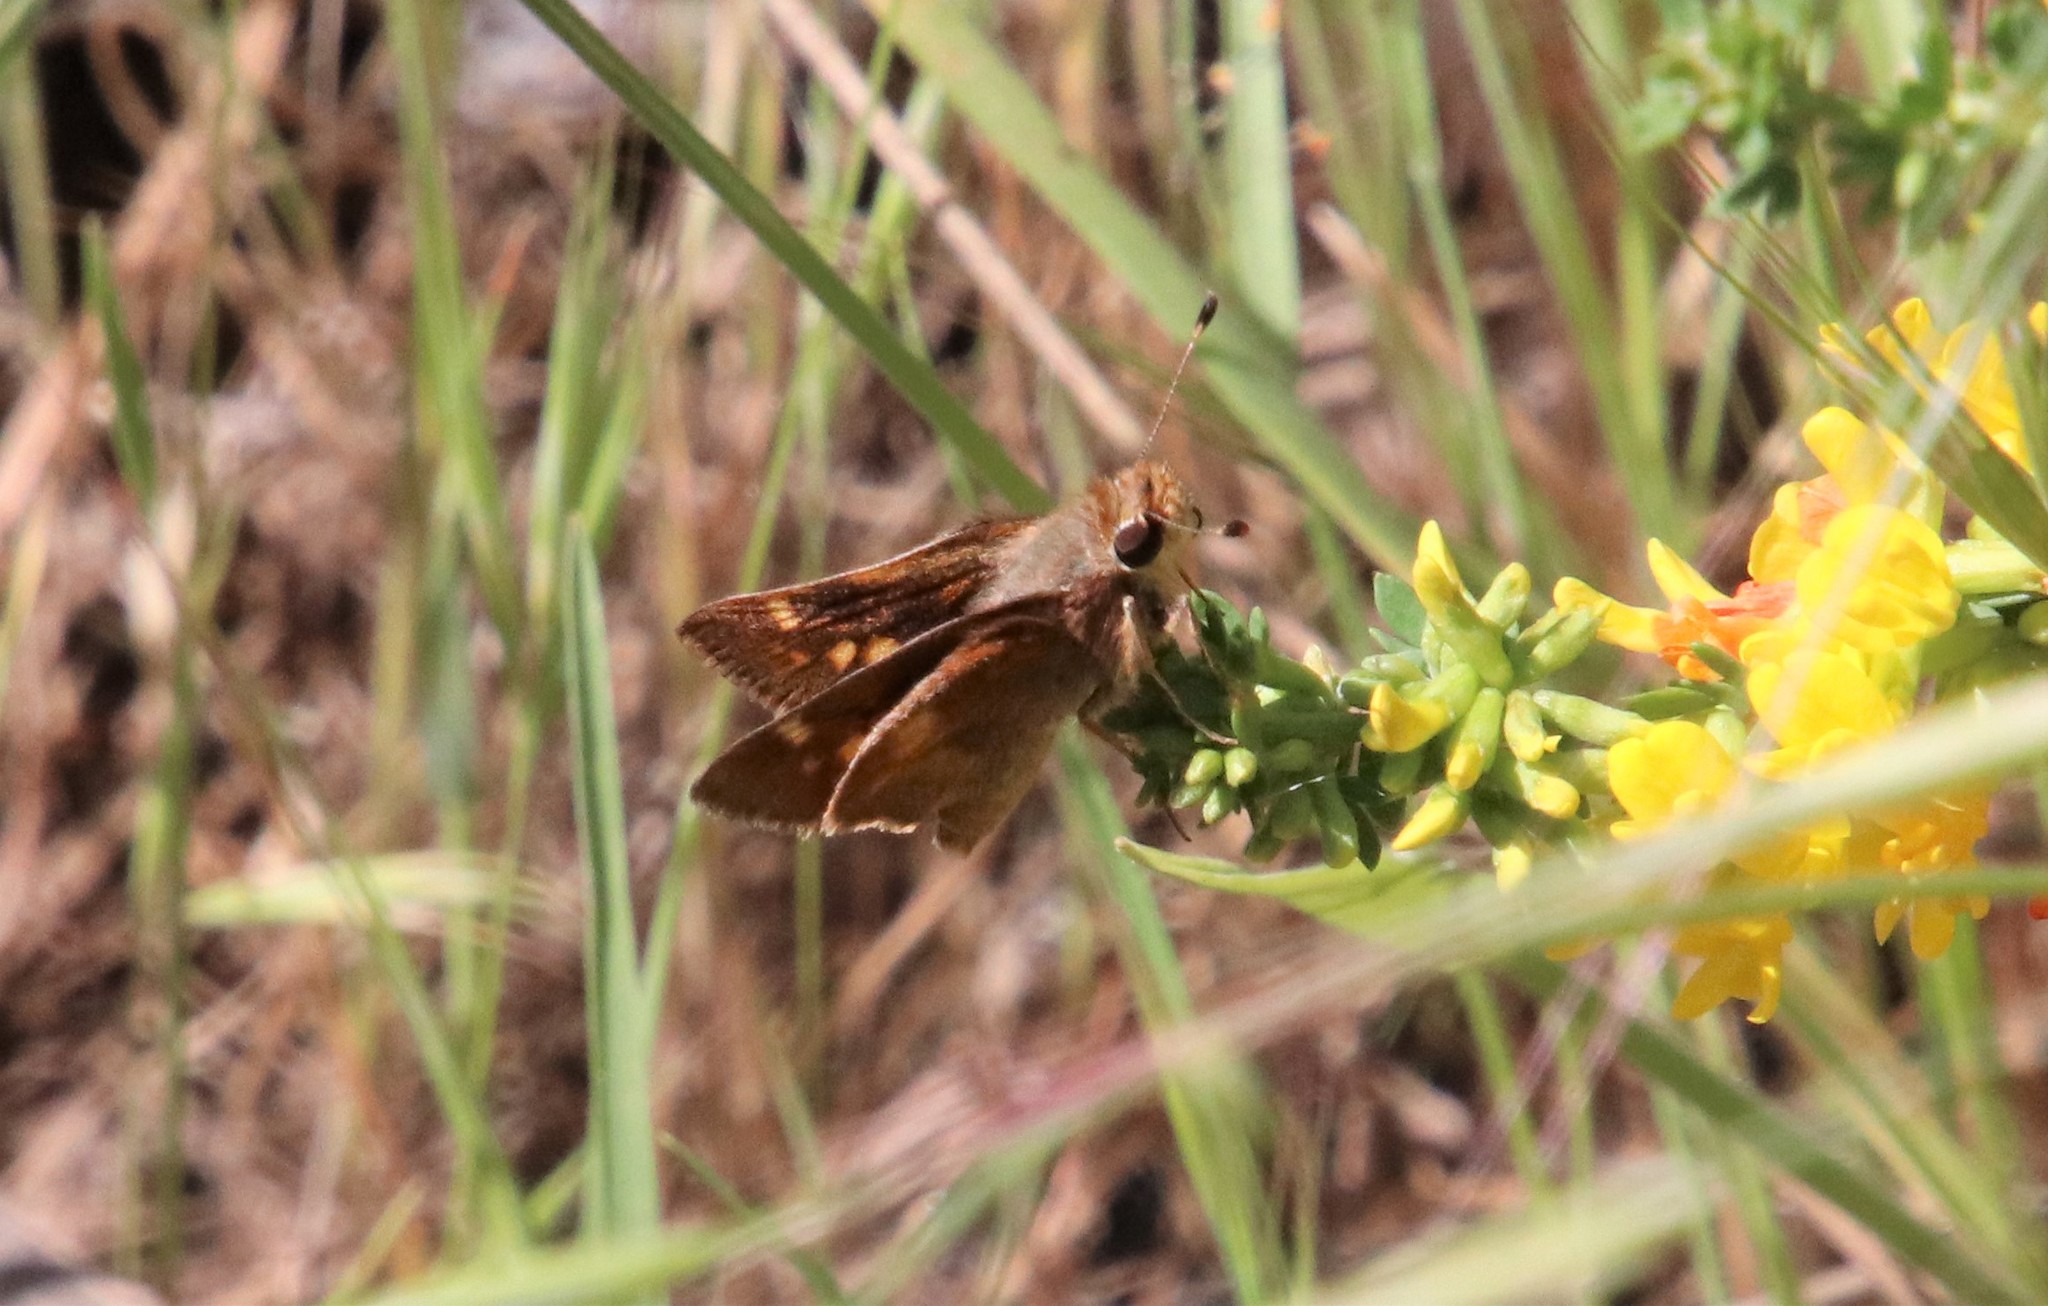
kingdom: Animalia
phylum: Arthropoda
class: Insecta
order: Lepidoptera
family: Hesperiidae
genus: Lon
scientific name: Lon melane
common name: Umber skipper
